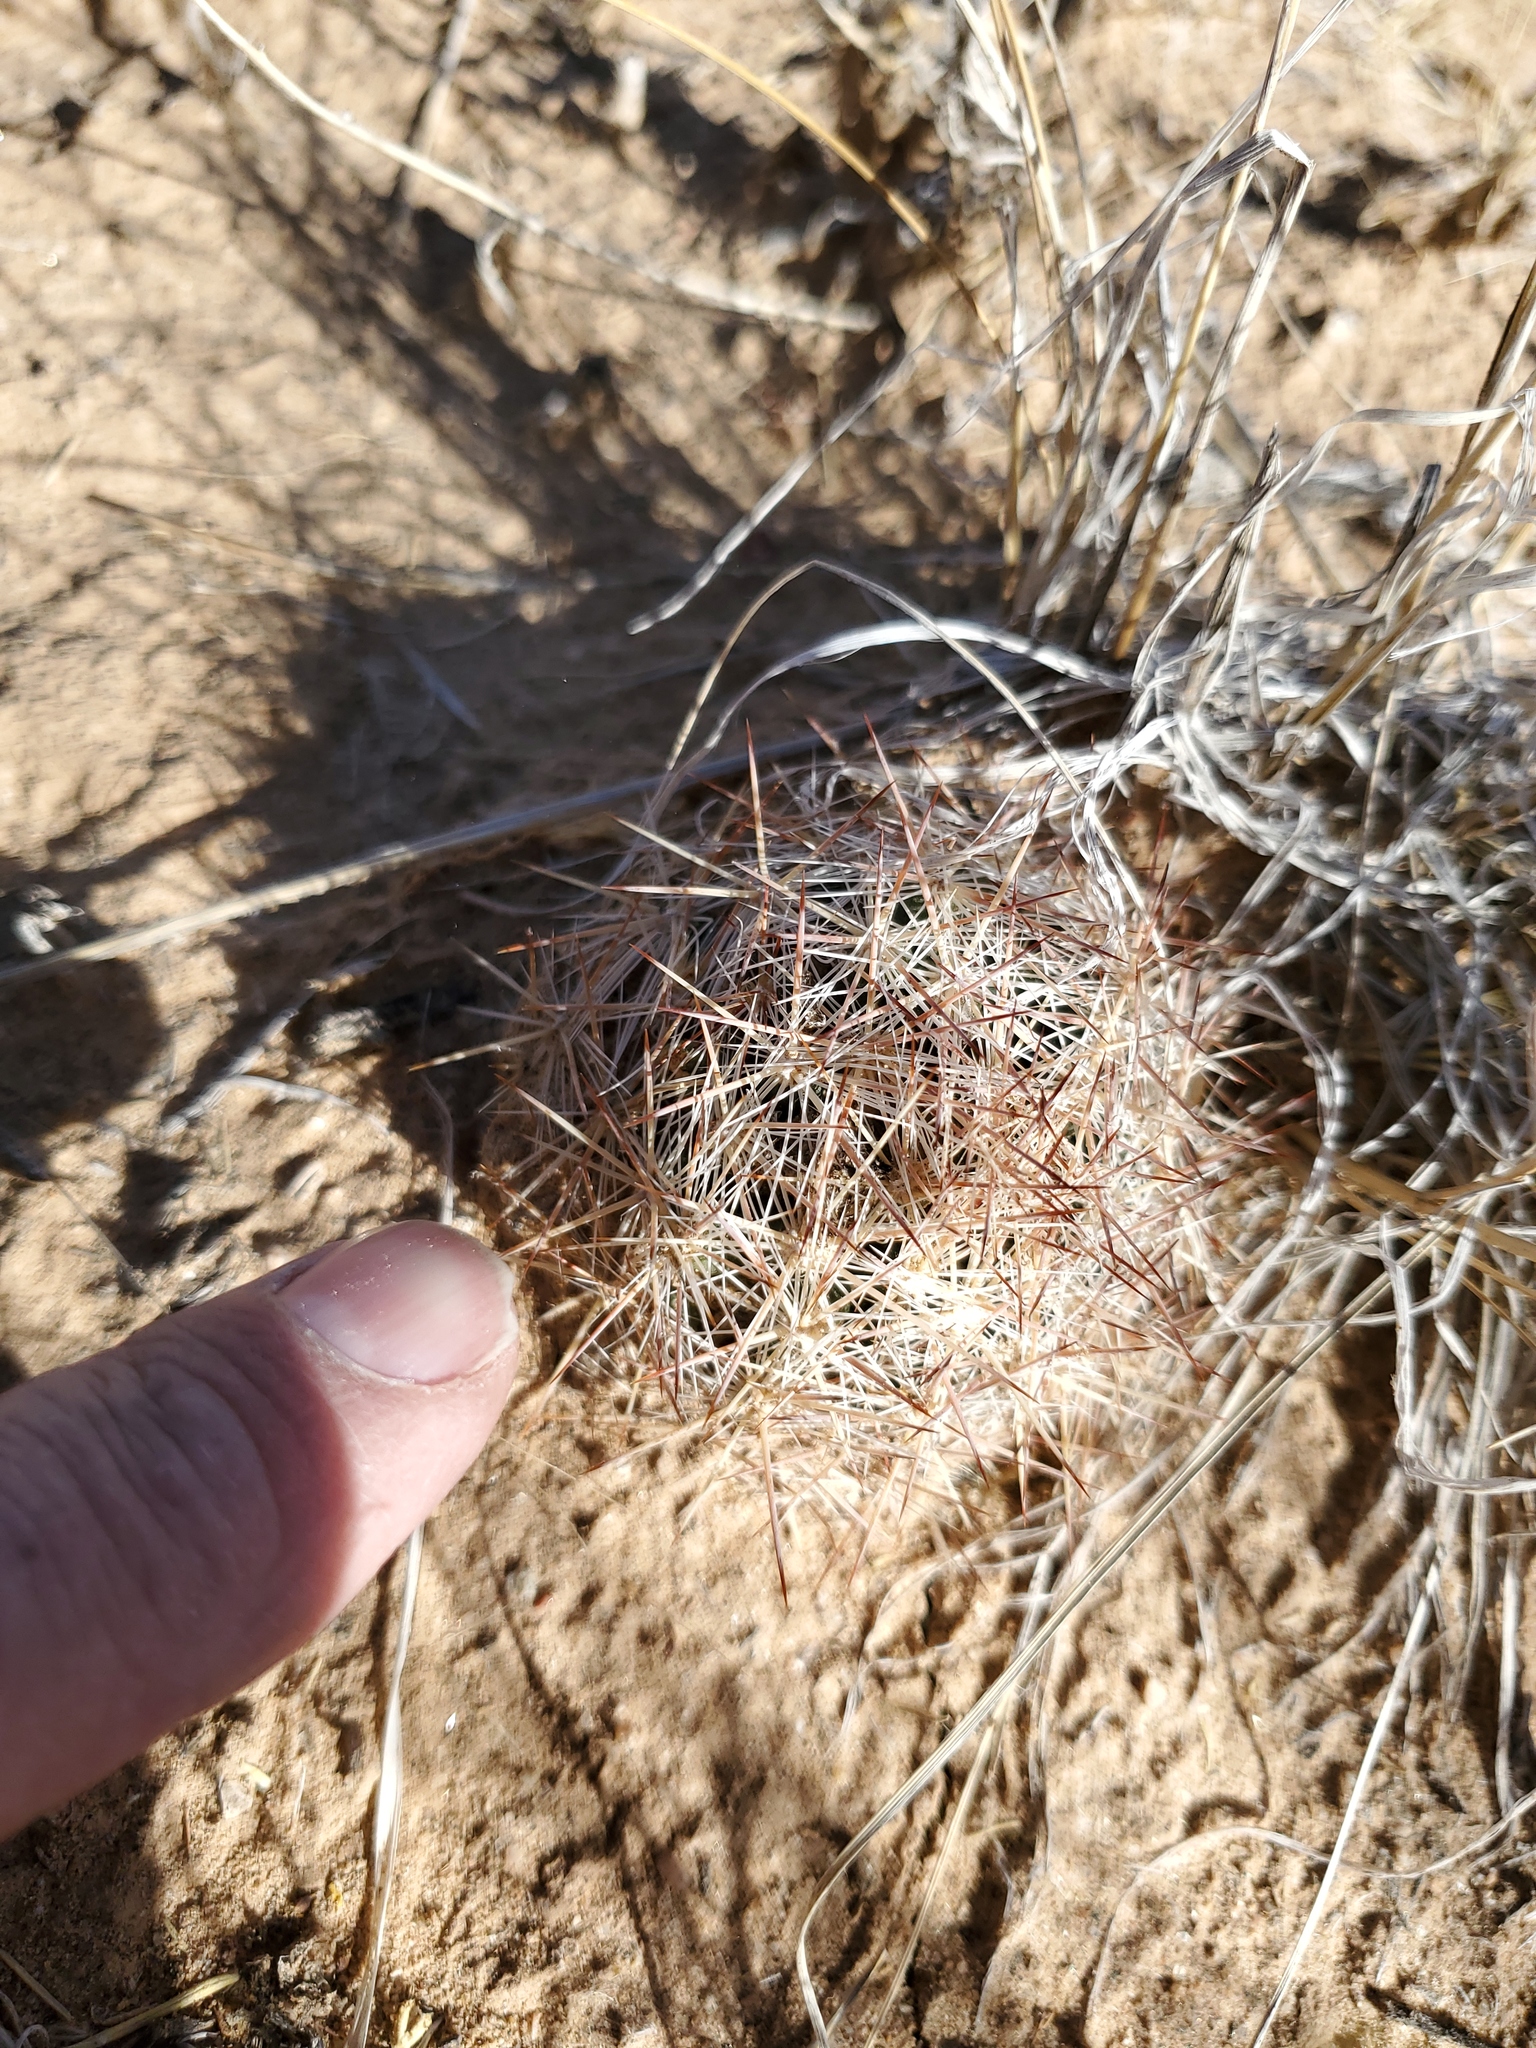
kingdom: Plantae
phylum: Tracheophyta
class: Magnoliopsida
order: Caryophyllales
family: Cactaceae
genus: Pelecyphora
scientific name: Pelecyphora vivipara
